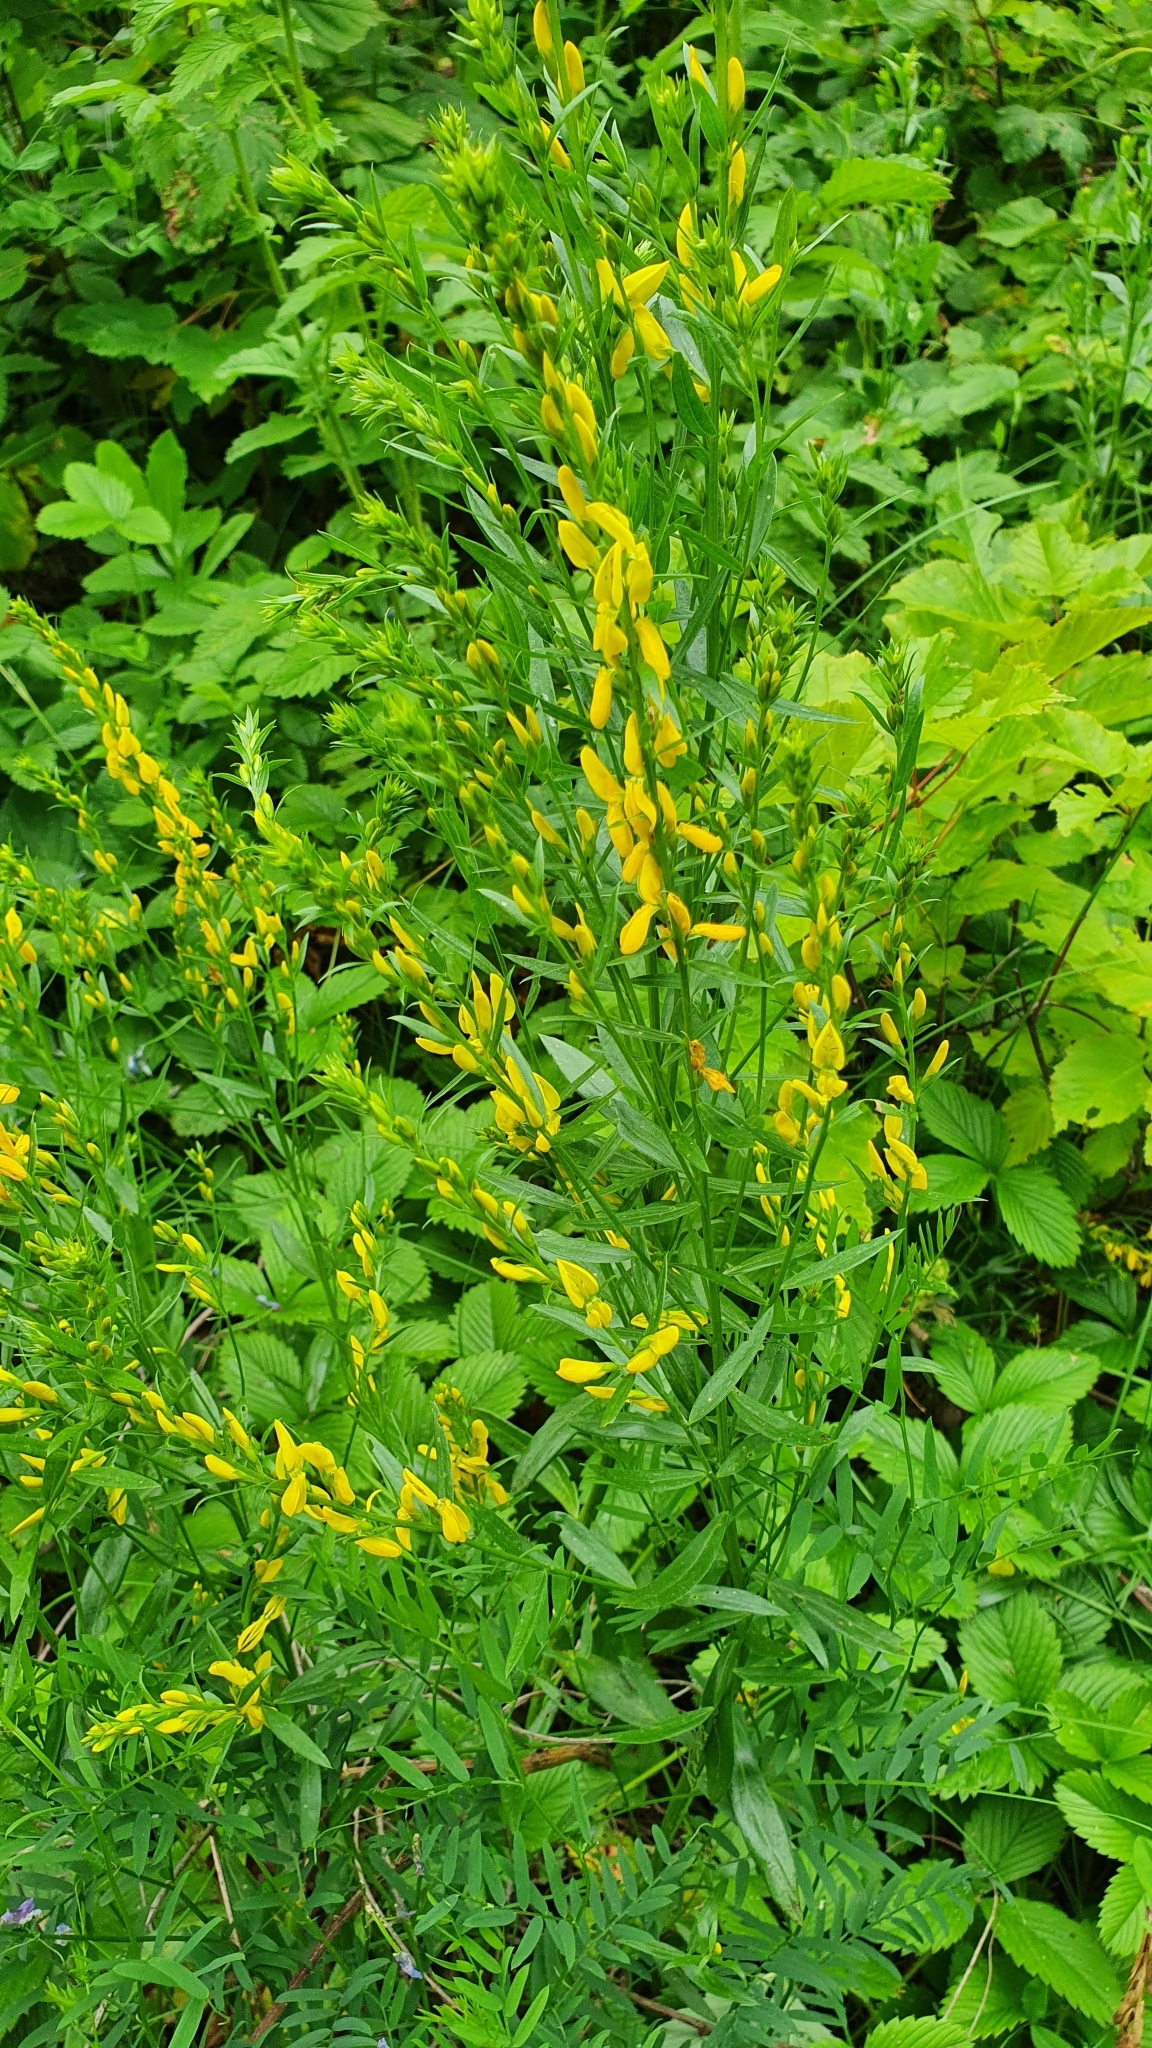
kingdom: Plantae
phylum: Tracheophyta
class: Magnoliopsida
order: Fabales
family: Fabaceae
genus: Genista
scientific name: Genista tinctoria
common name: Dyer's greenweed
